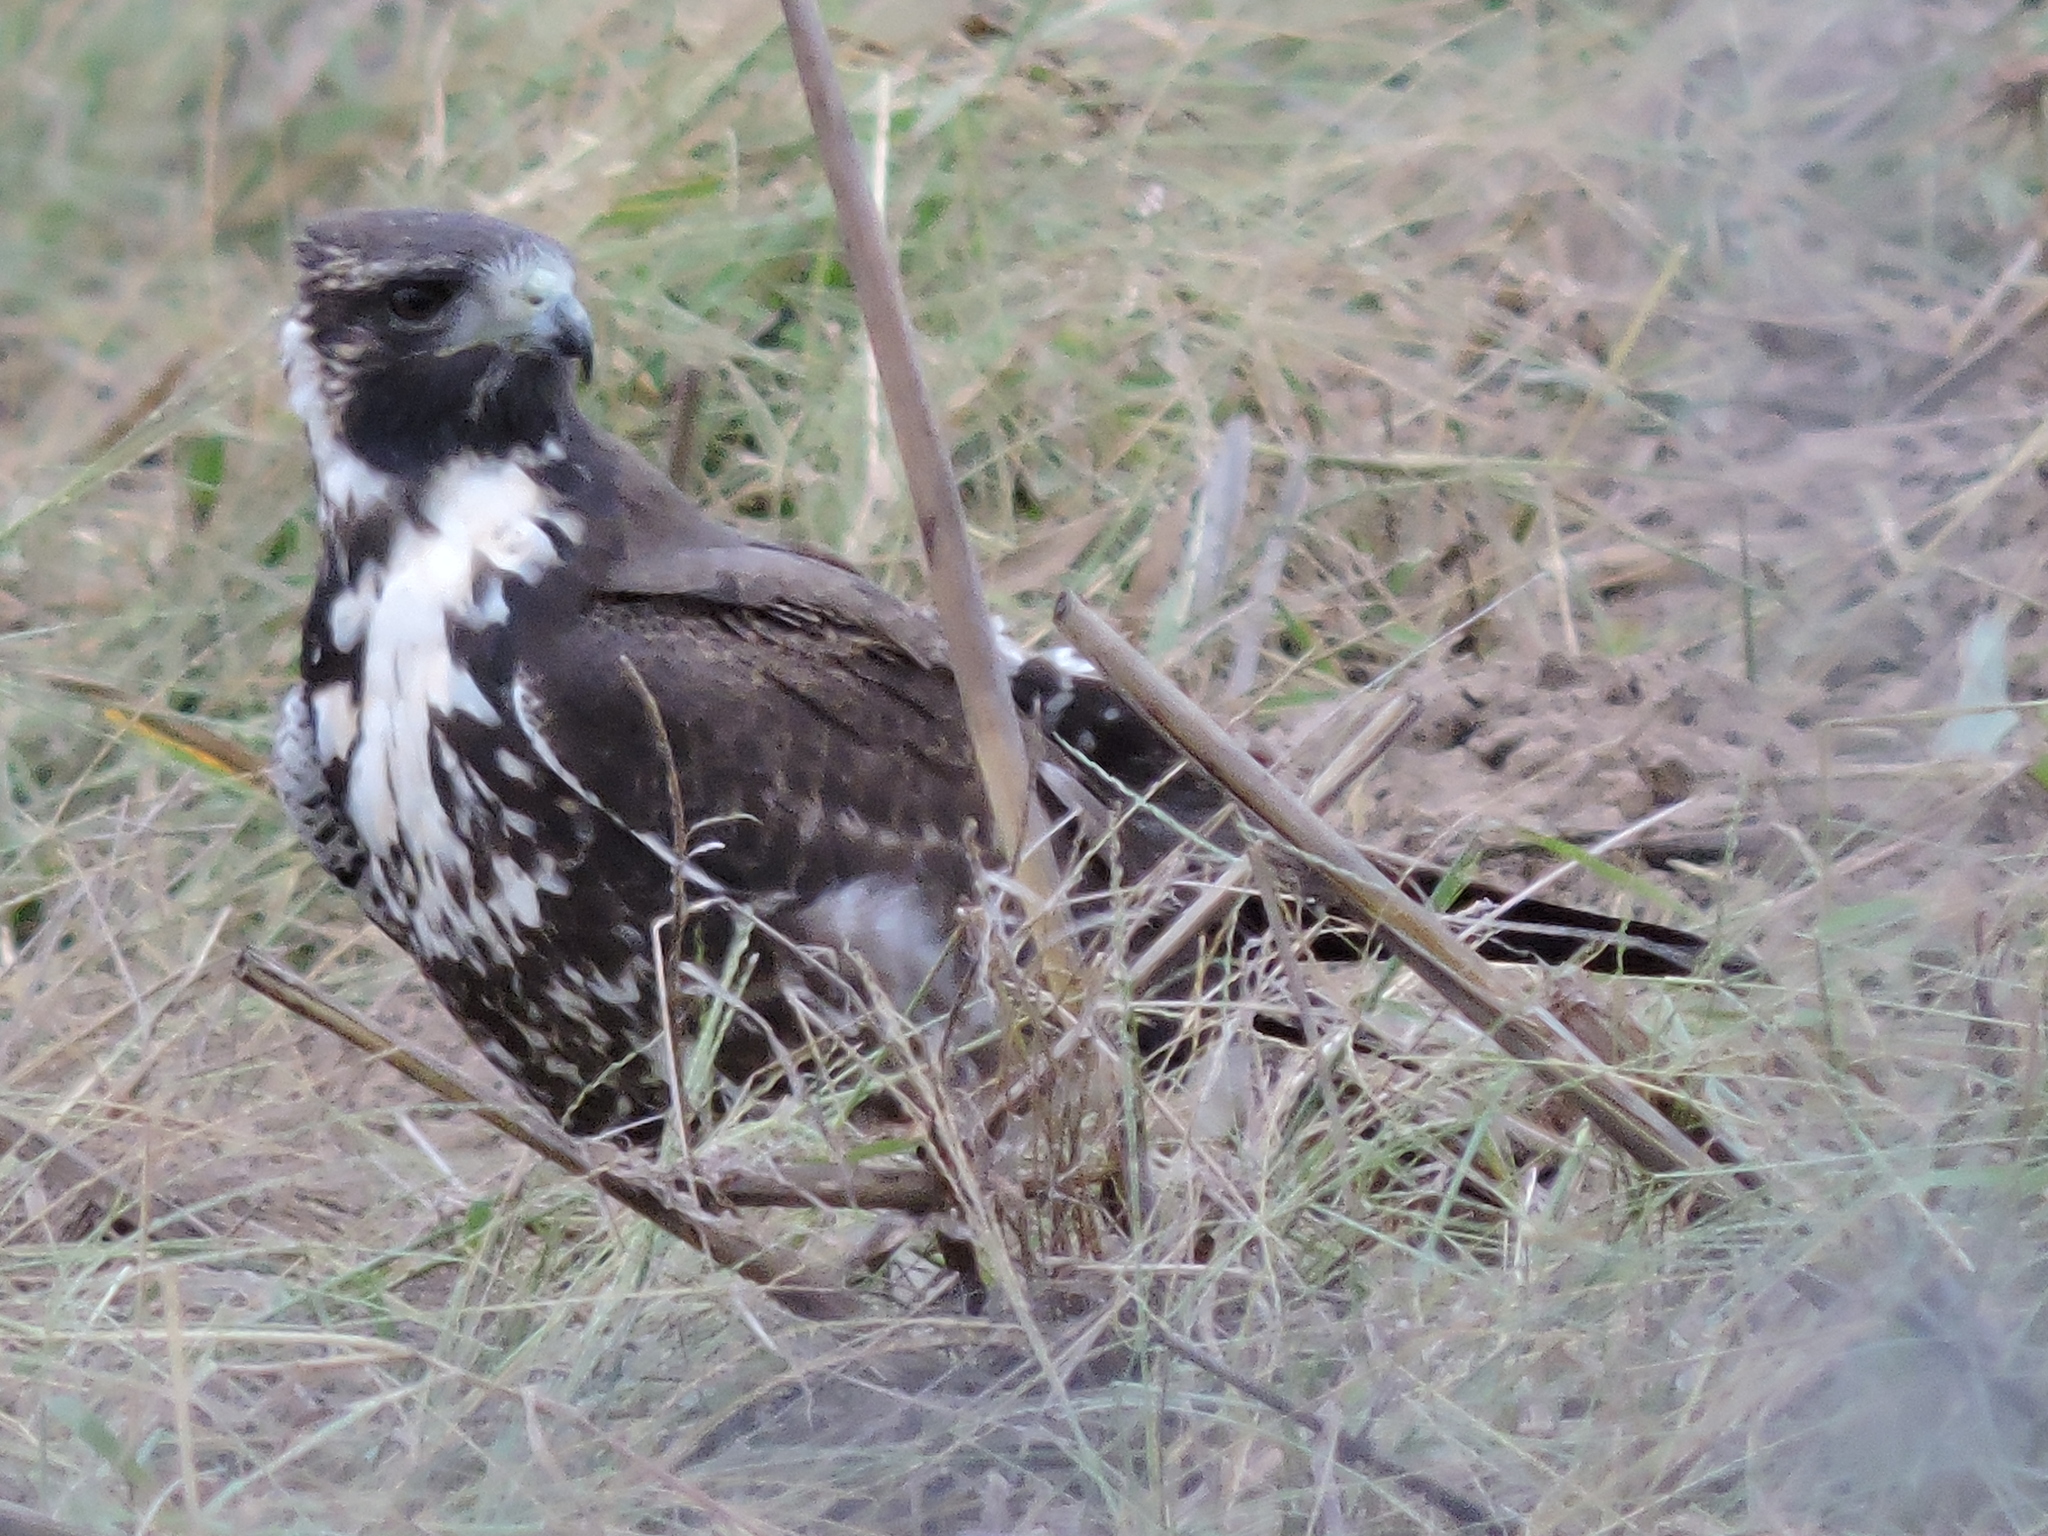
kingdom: Animalia
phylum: Chordata
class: Aves
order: Accipitriformes
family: Accipitridae
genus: Buteo
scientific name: Buteo albicaudatus
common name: White-tailed hawk
